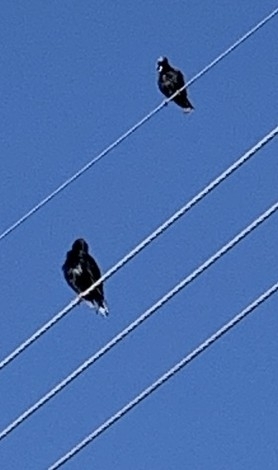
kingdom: Animalia
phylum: Chordata
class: Aves
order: Passeriformes
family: Sturnidae
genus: Sturnus
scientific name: Sturnus vulgaris
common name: Common starling
